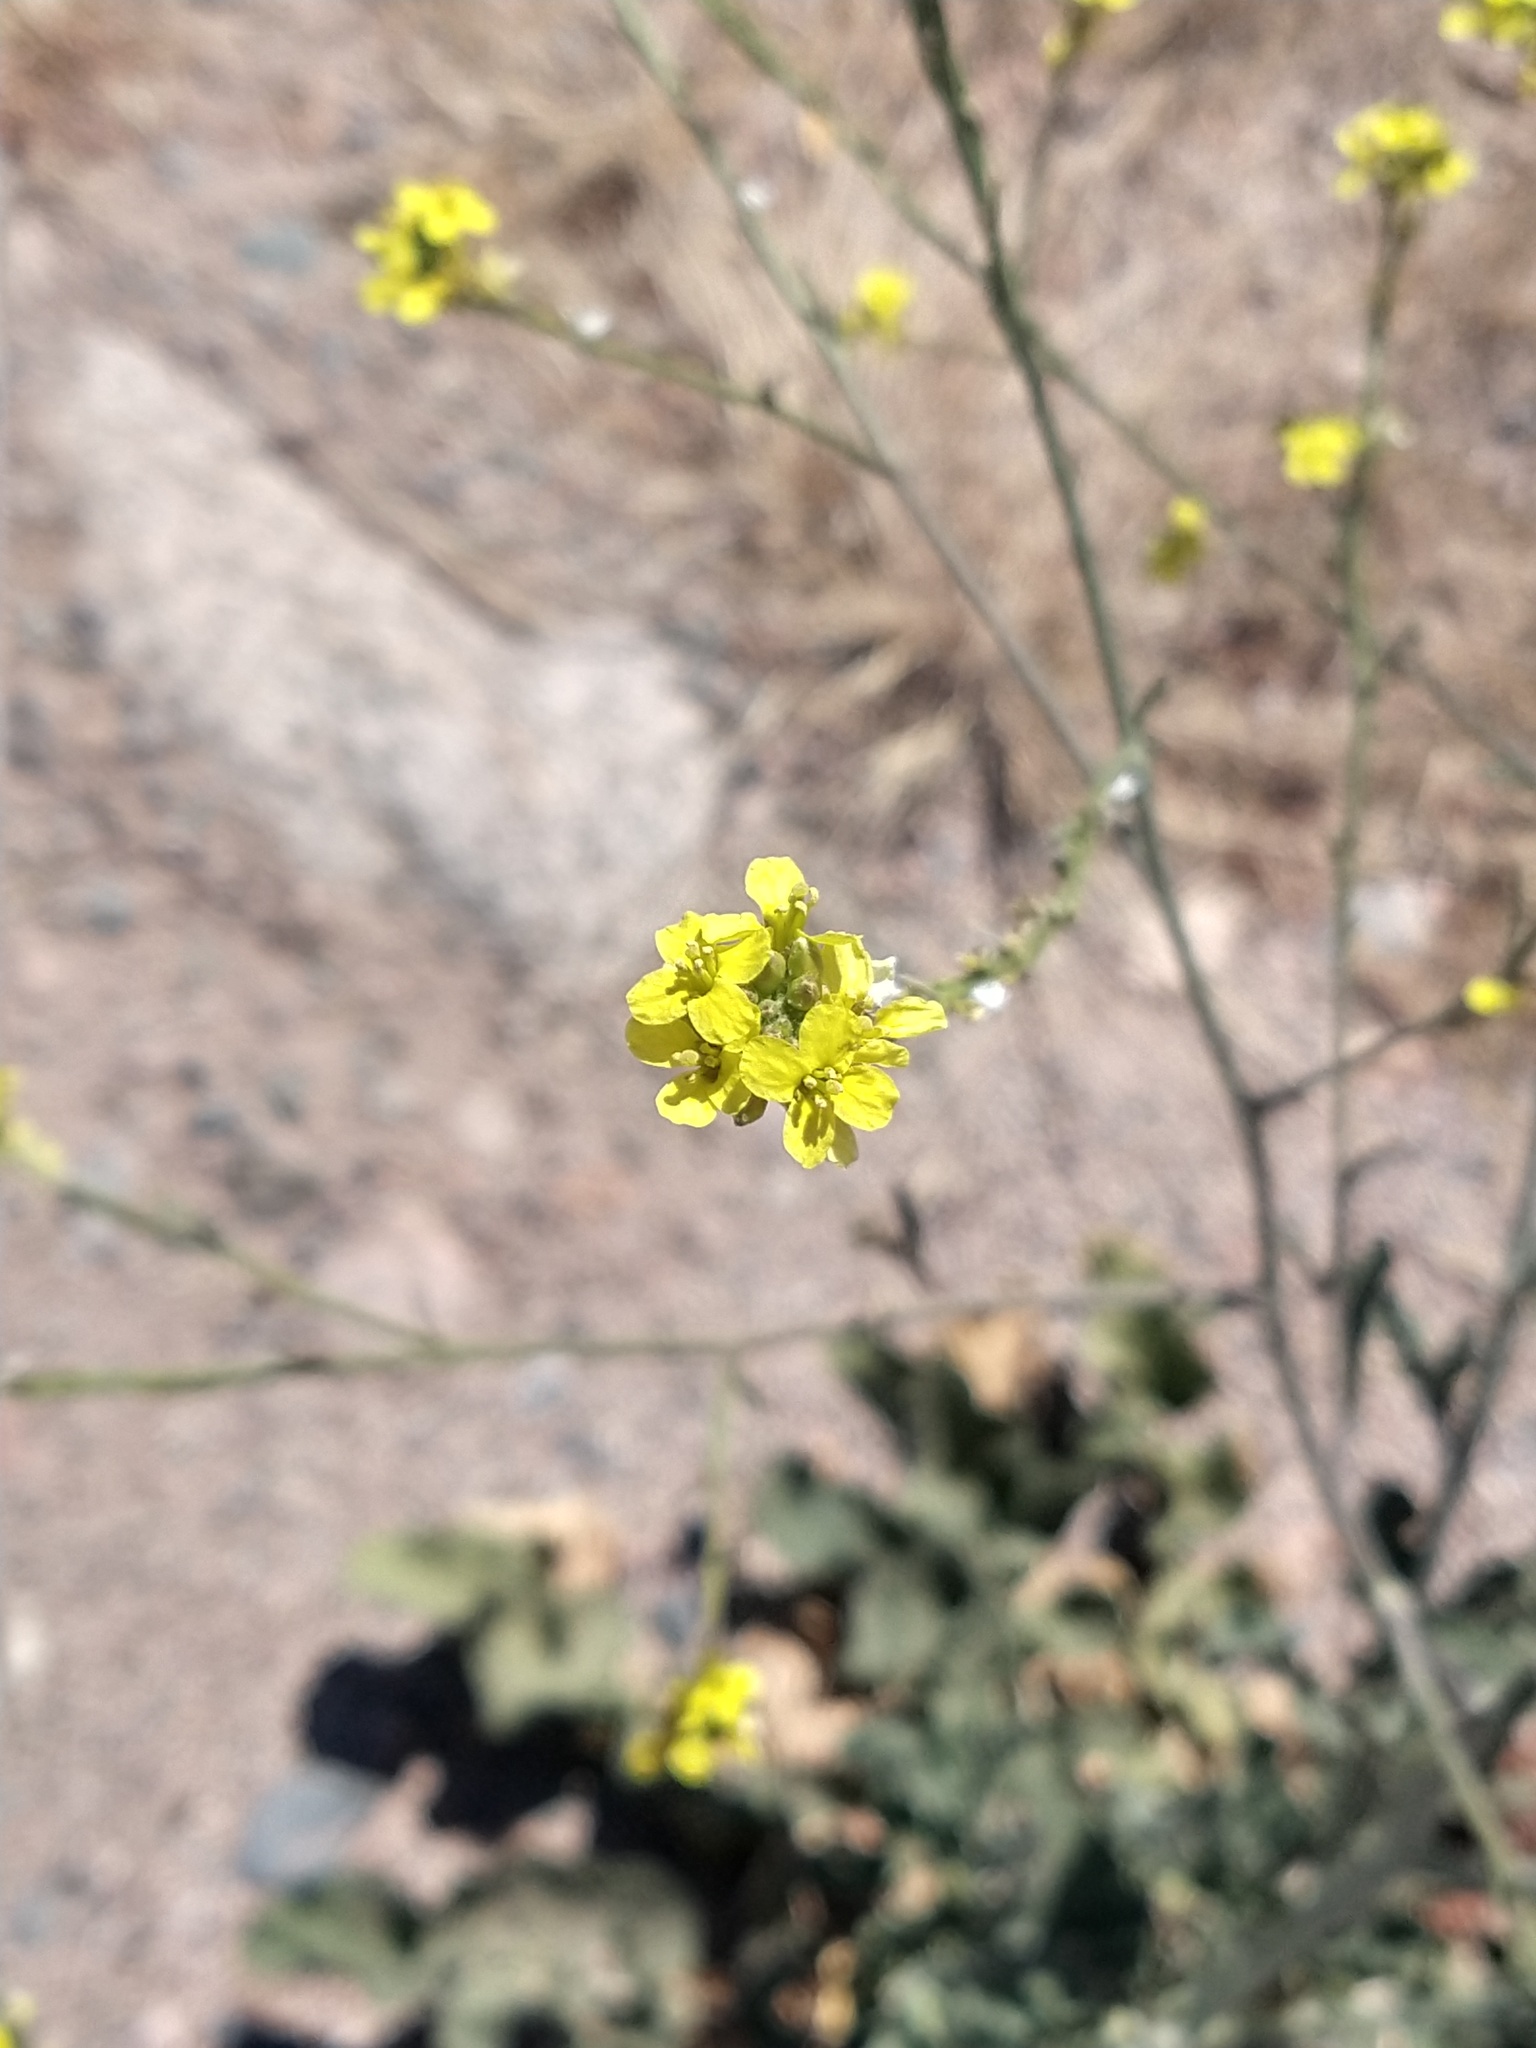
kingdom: Plantae
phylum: Tracheophyta
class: Magnoliopsida
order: Brassicales
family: Brassicaceae
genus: Hirschfeldia
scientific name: Hirschfeldia incana
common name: Hoary mustard
